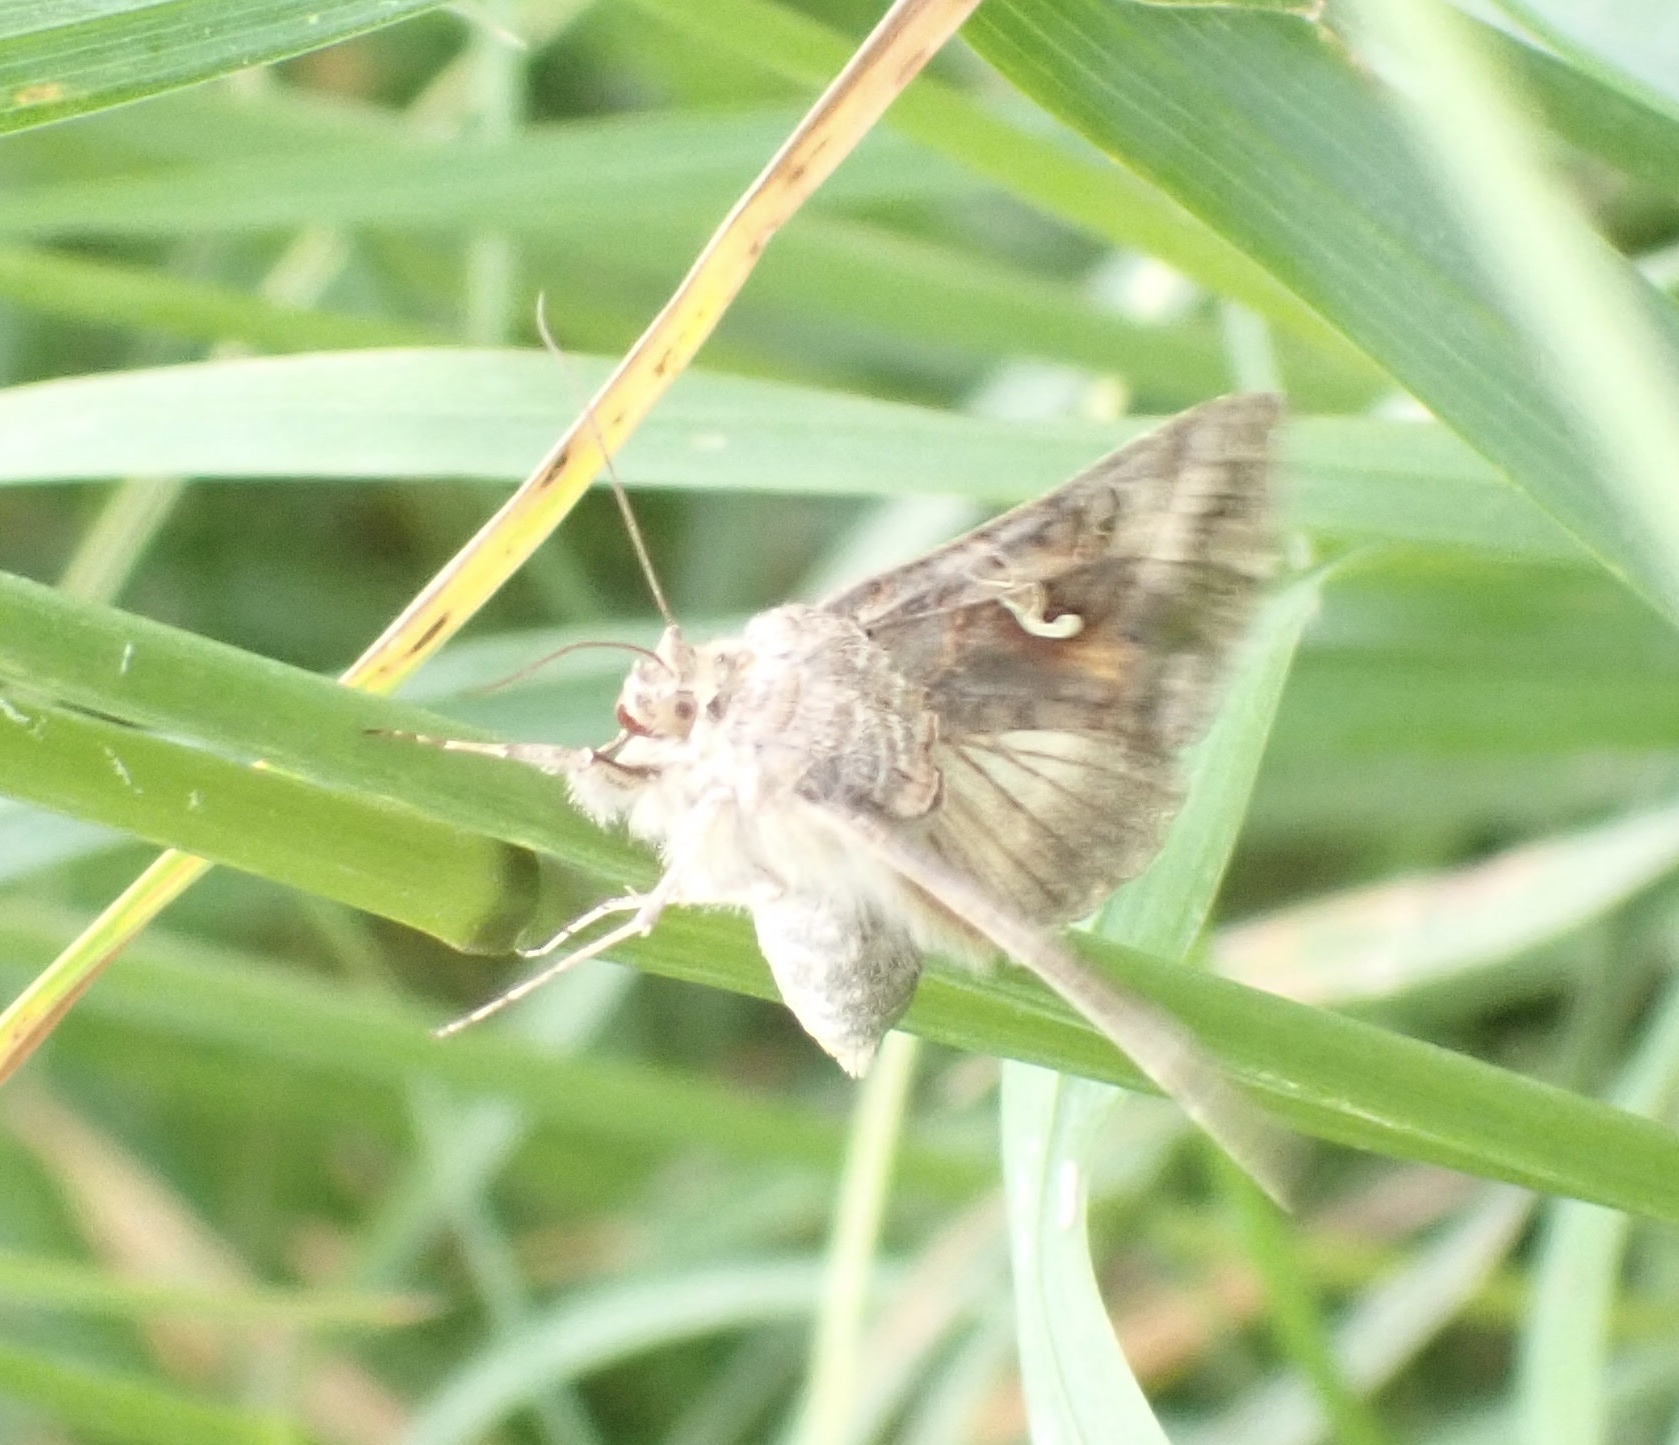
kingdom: Animalia
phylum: Arthropoda
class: Insecta
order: Lepidoptera
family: Noctuidae
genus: Autographa
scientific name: Autographa gamma
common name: Silver y
